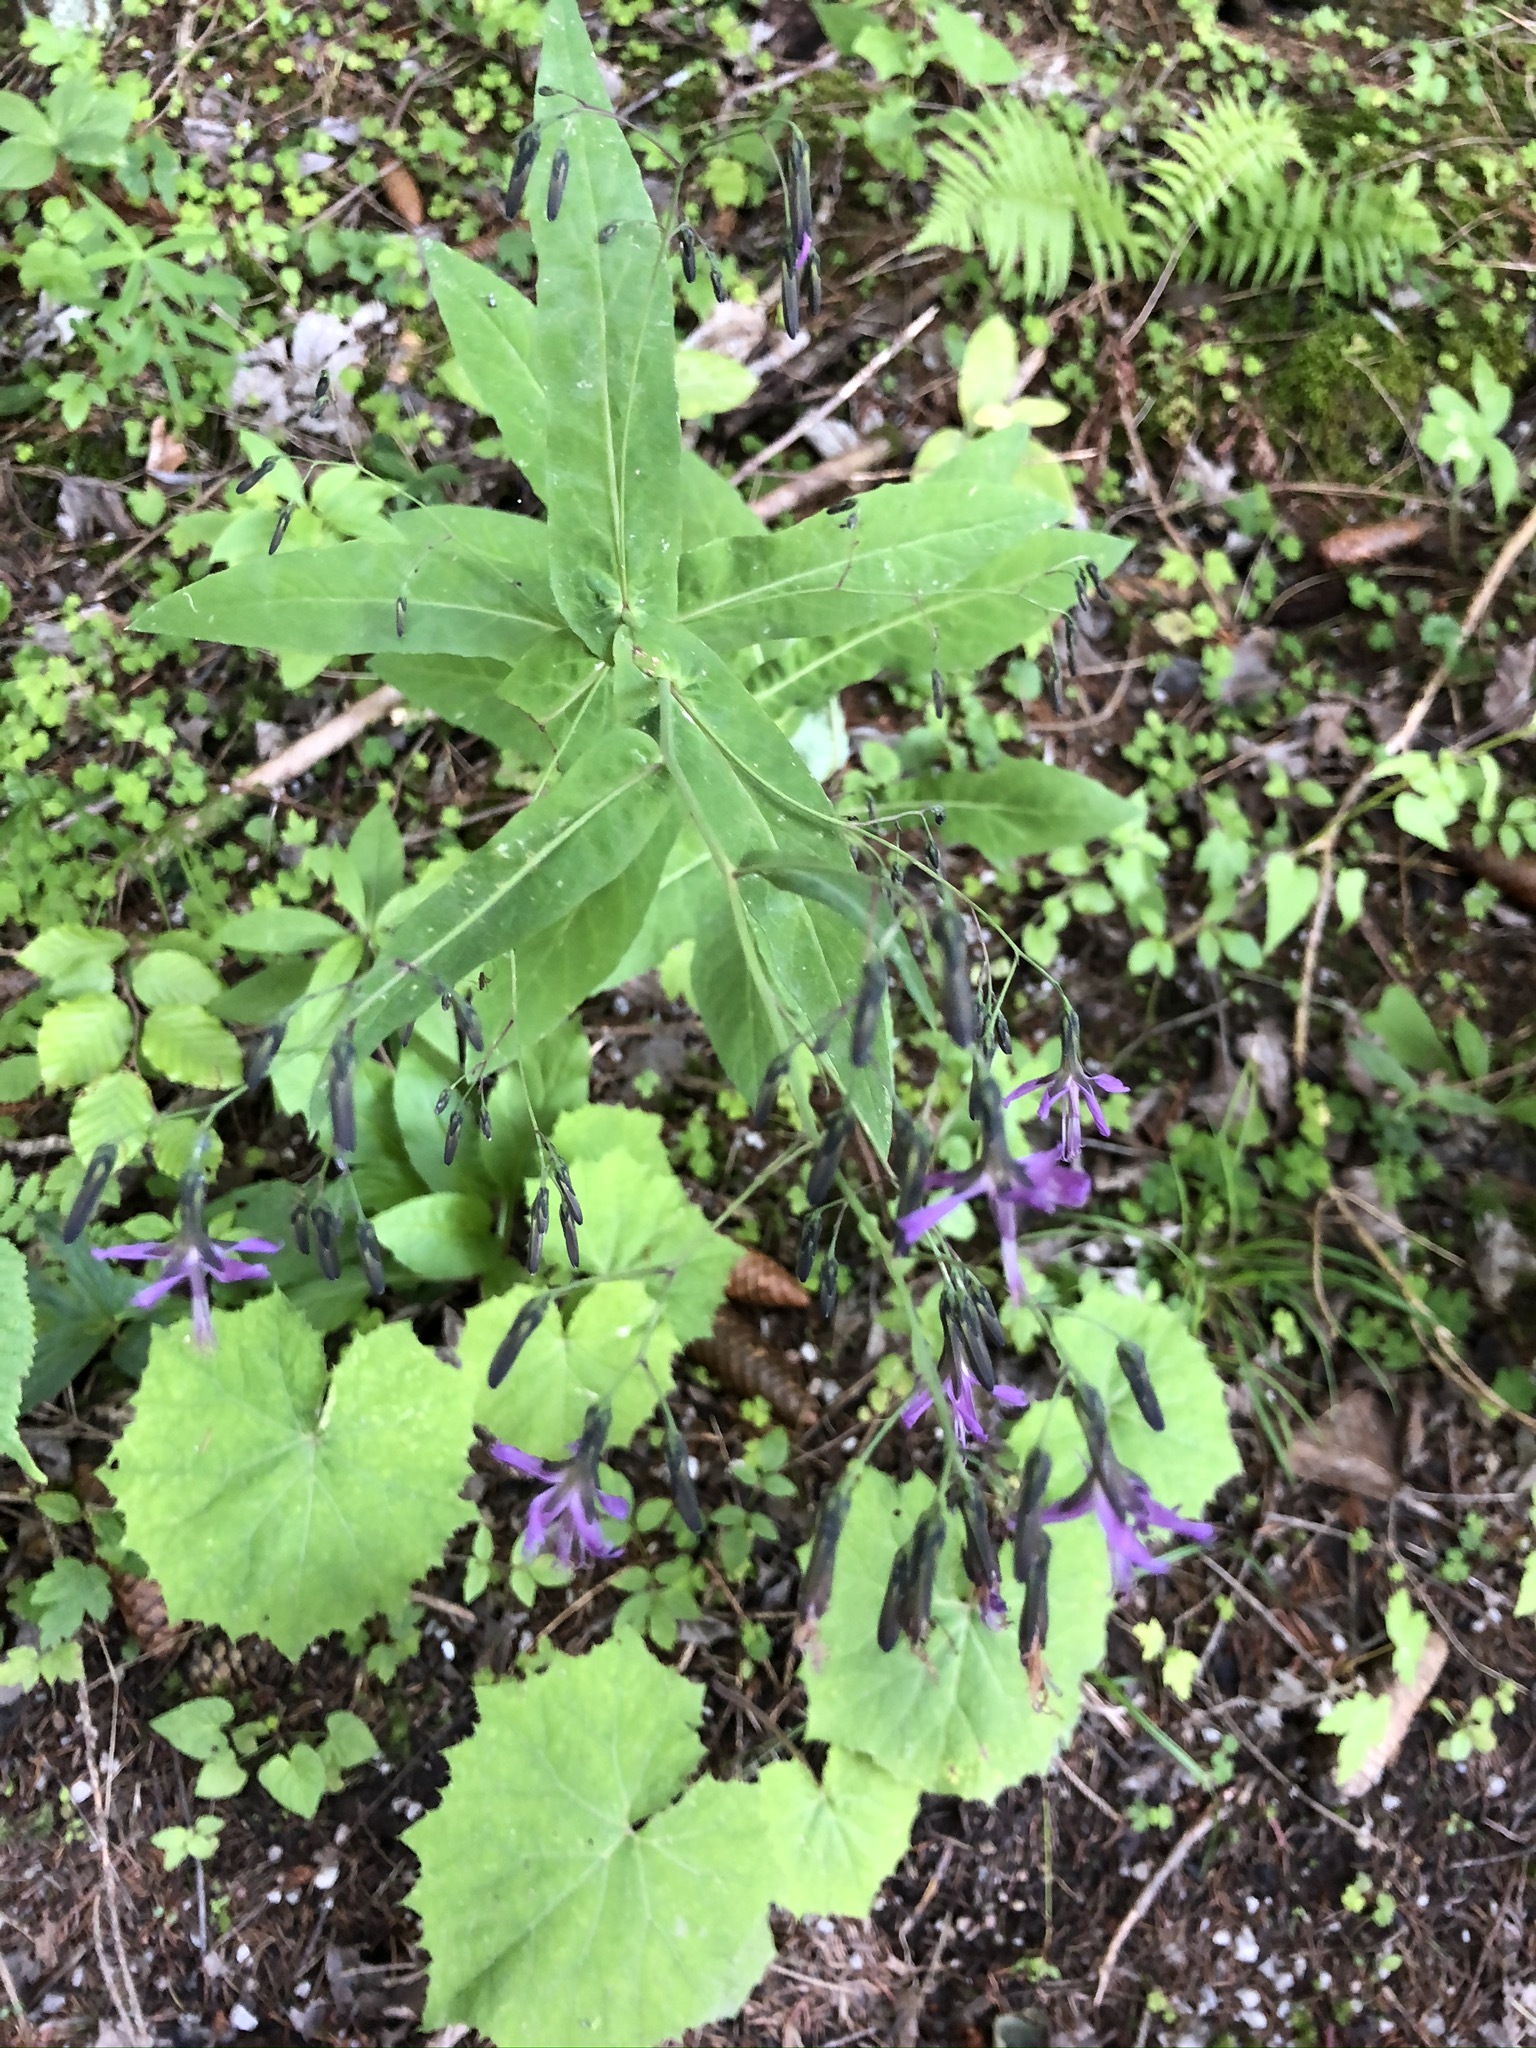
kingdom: Plantae
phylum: Tracheophyta
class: Magnoliopsida
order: Asterales
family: Asteraceae
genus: Prenanthes
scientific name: Prenanthes purpurea
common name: Purple lettuce
